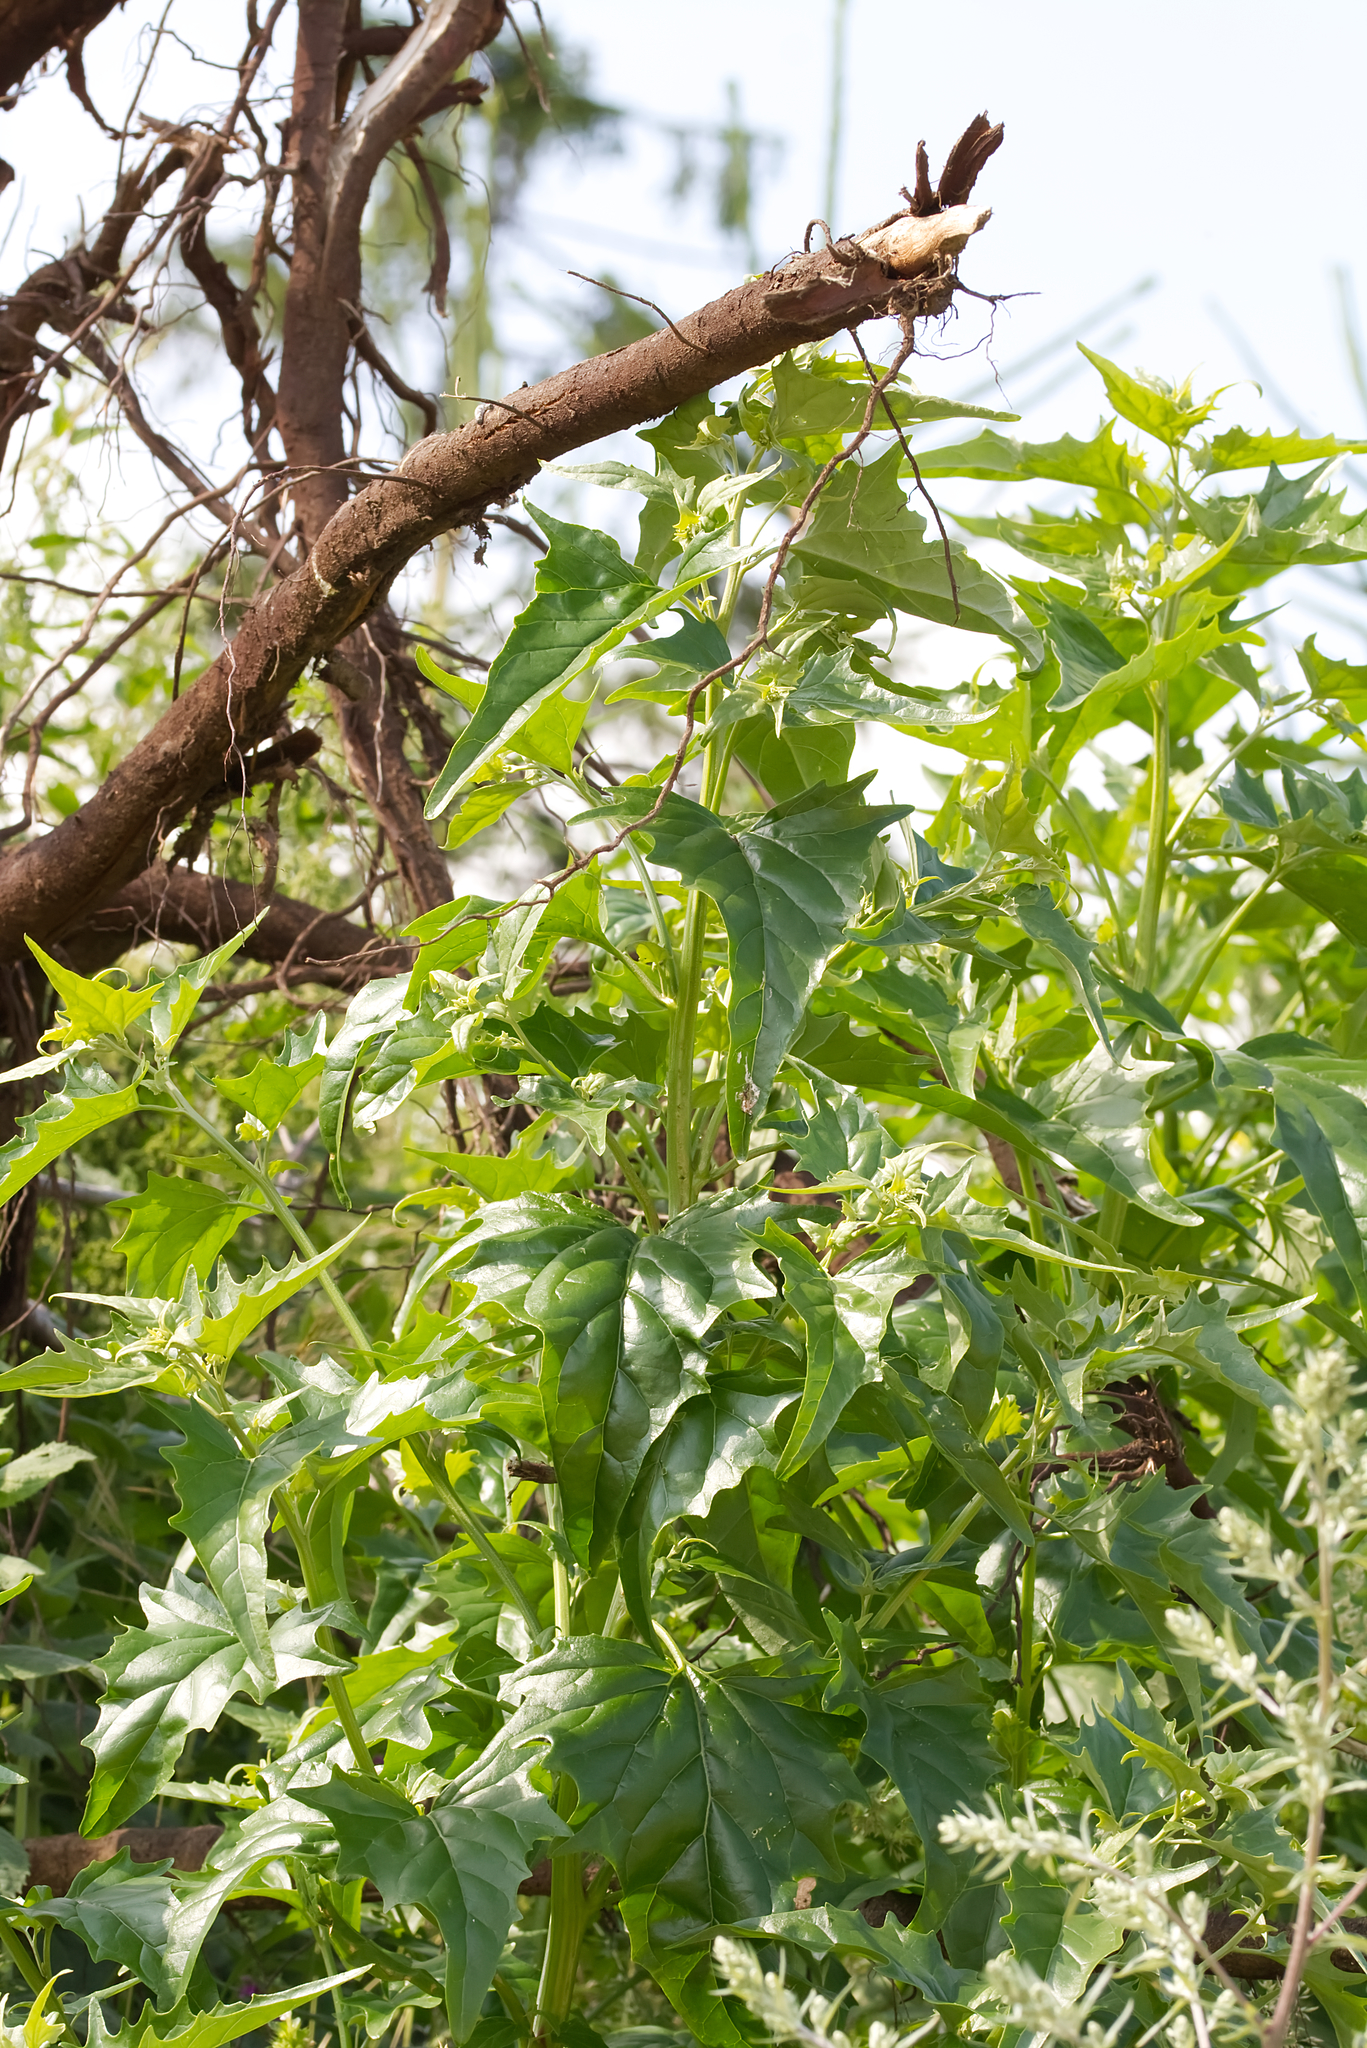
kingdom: Plantae
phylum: Tracheophyta
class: Magnoliopsida
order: Caryophyllales
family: Amaranthaceae
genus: Atriplex
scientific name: Atriplex sagittata
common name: Purple orache
